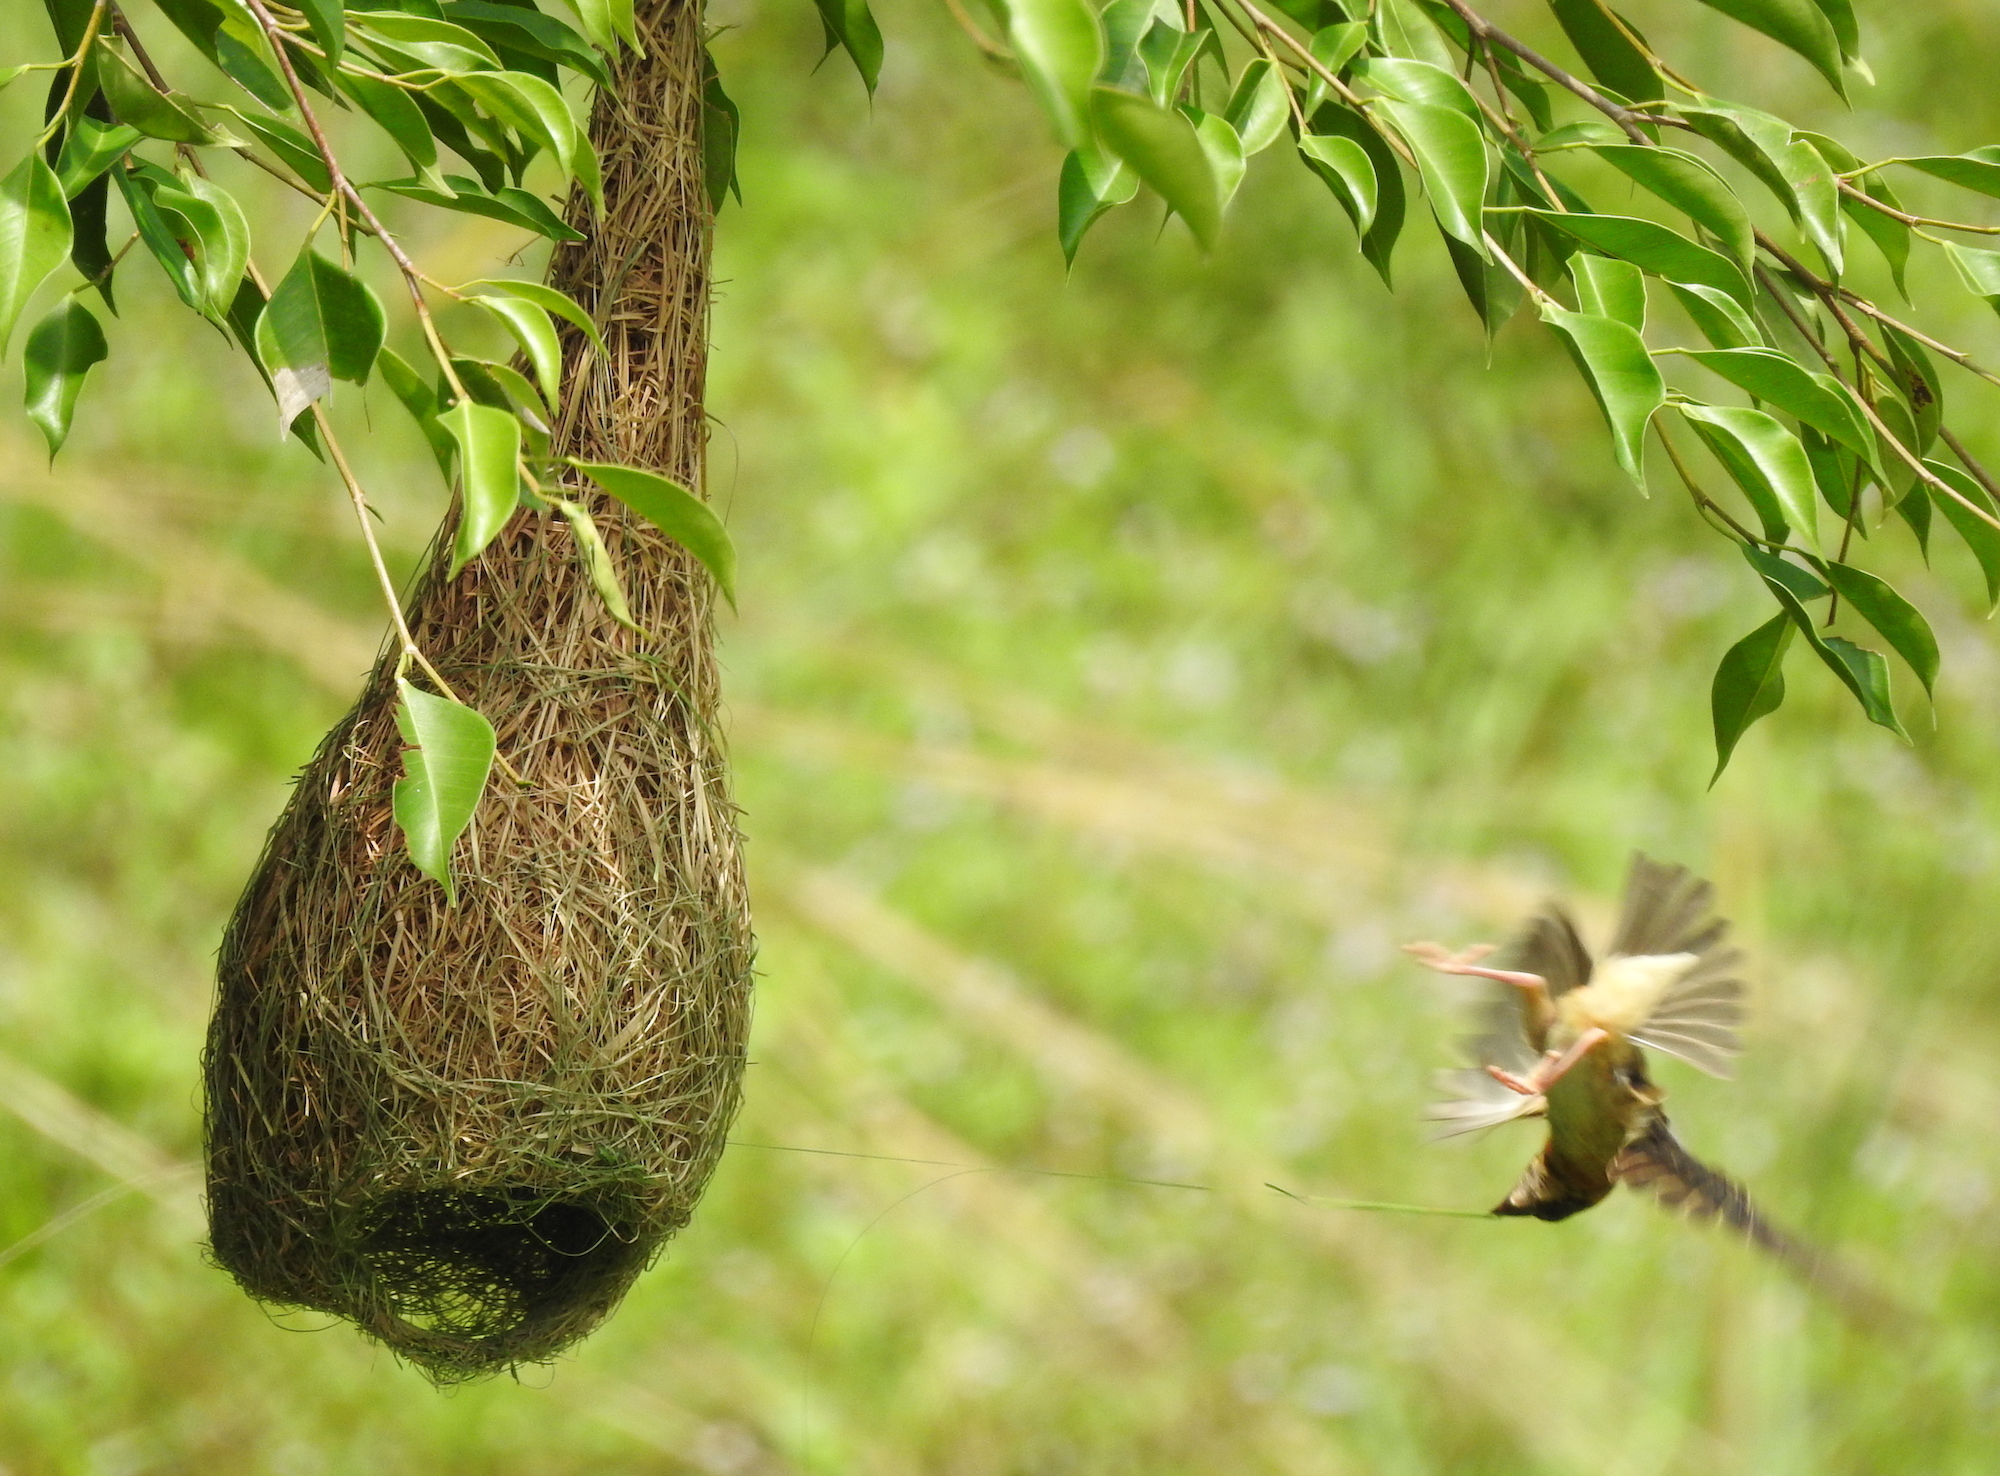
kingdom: Animalia
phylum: Chordata
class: Aves
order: Passeriformes
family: Ploceidae
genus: Ploceus
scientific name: Ploceus philippinus
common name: Baya weaver
